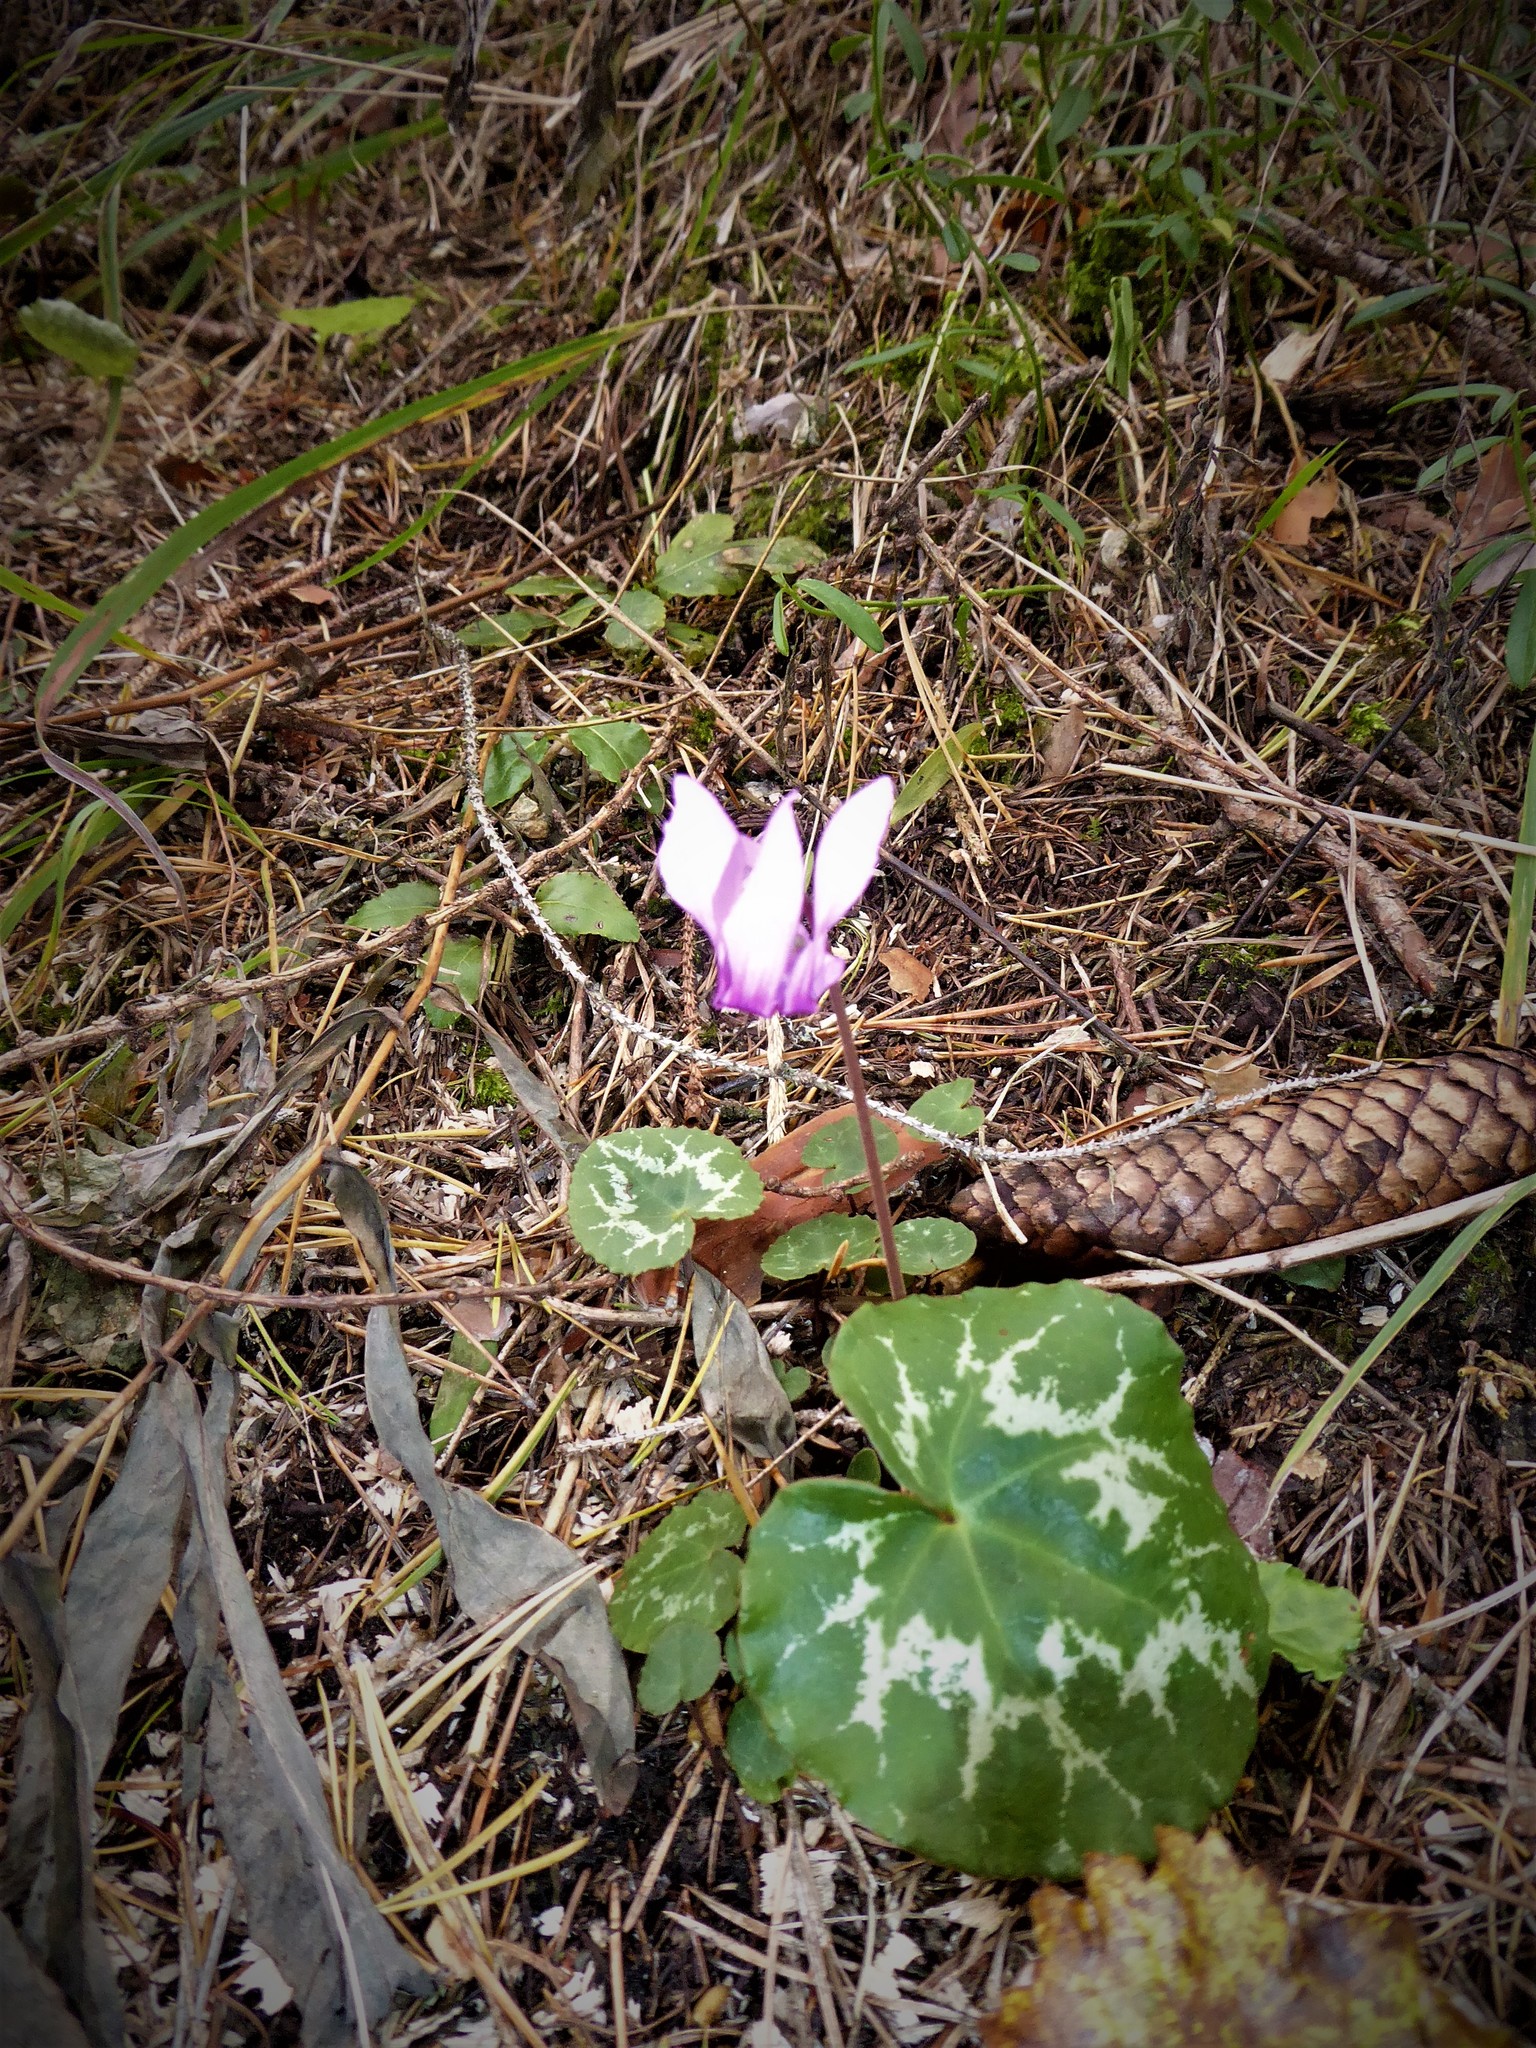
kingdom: Plantae
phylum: Tracheophyta
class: Magnoliopsida
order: Ericales
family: Primulaceae
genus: Cyclamen
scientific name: Cyclamen purpurascens
